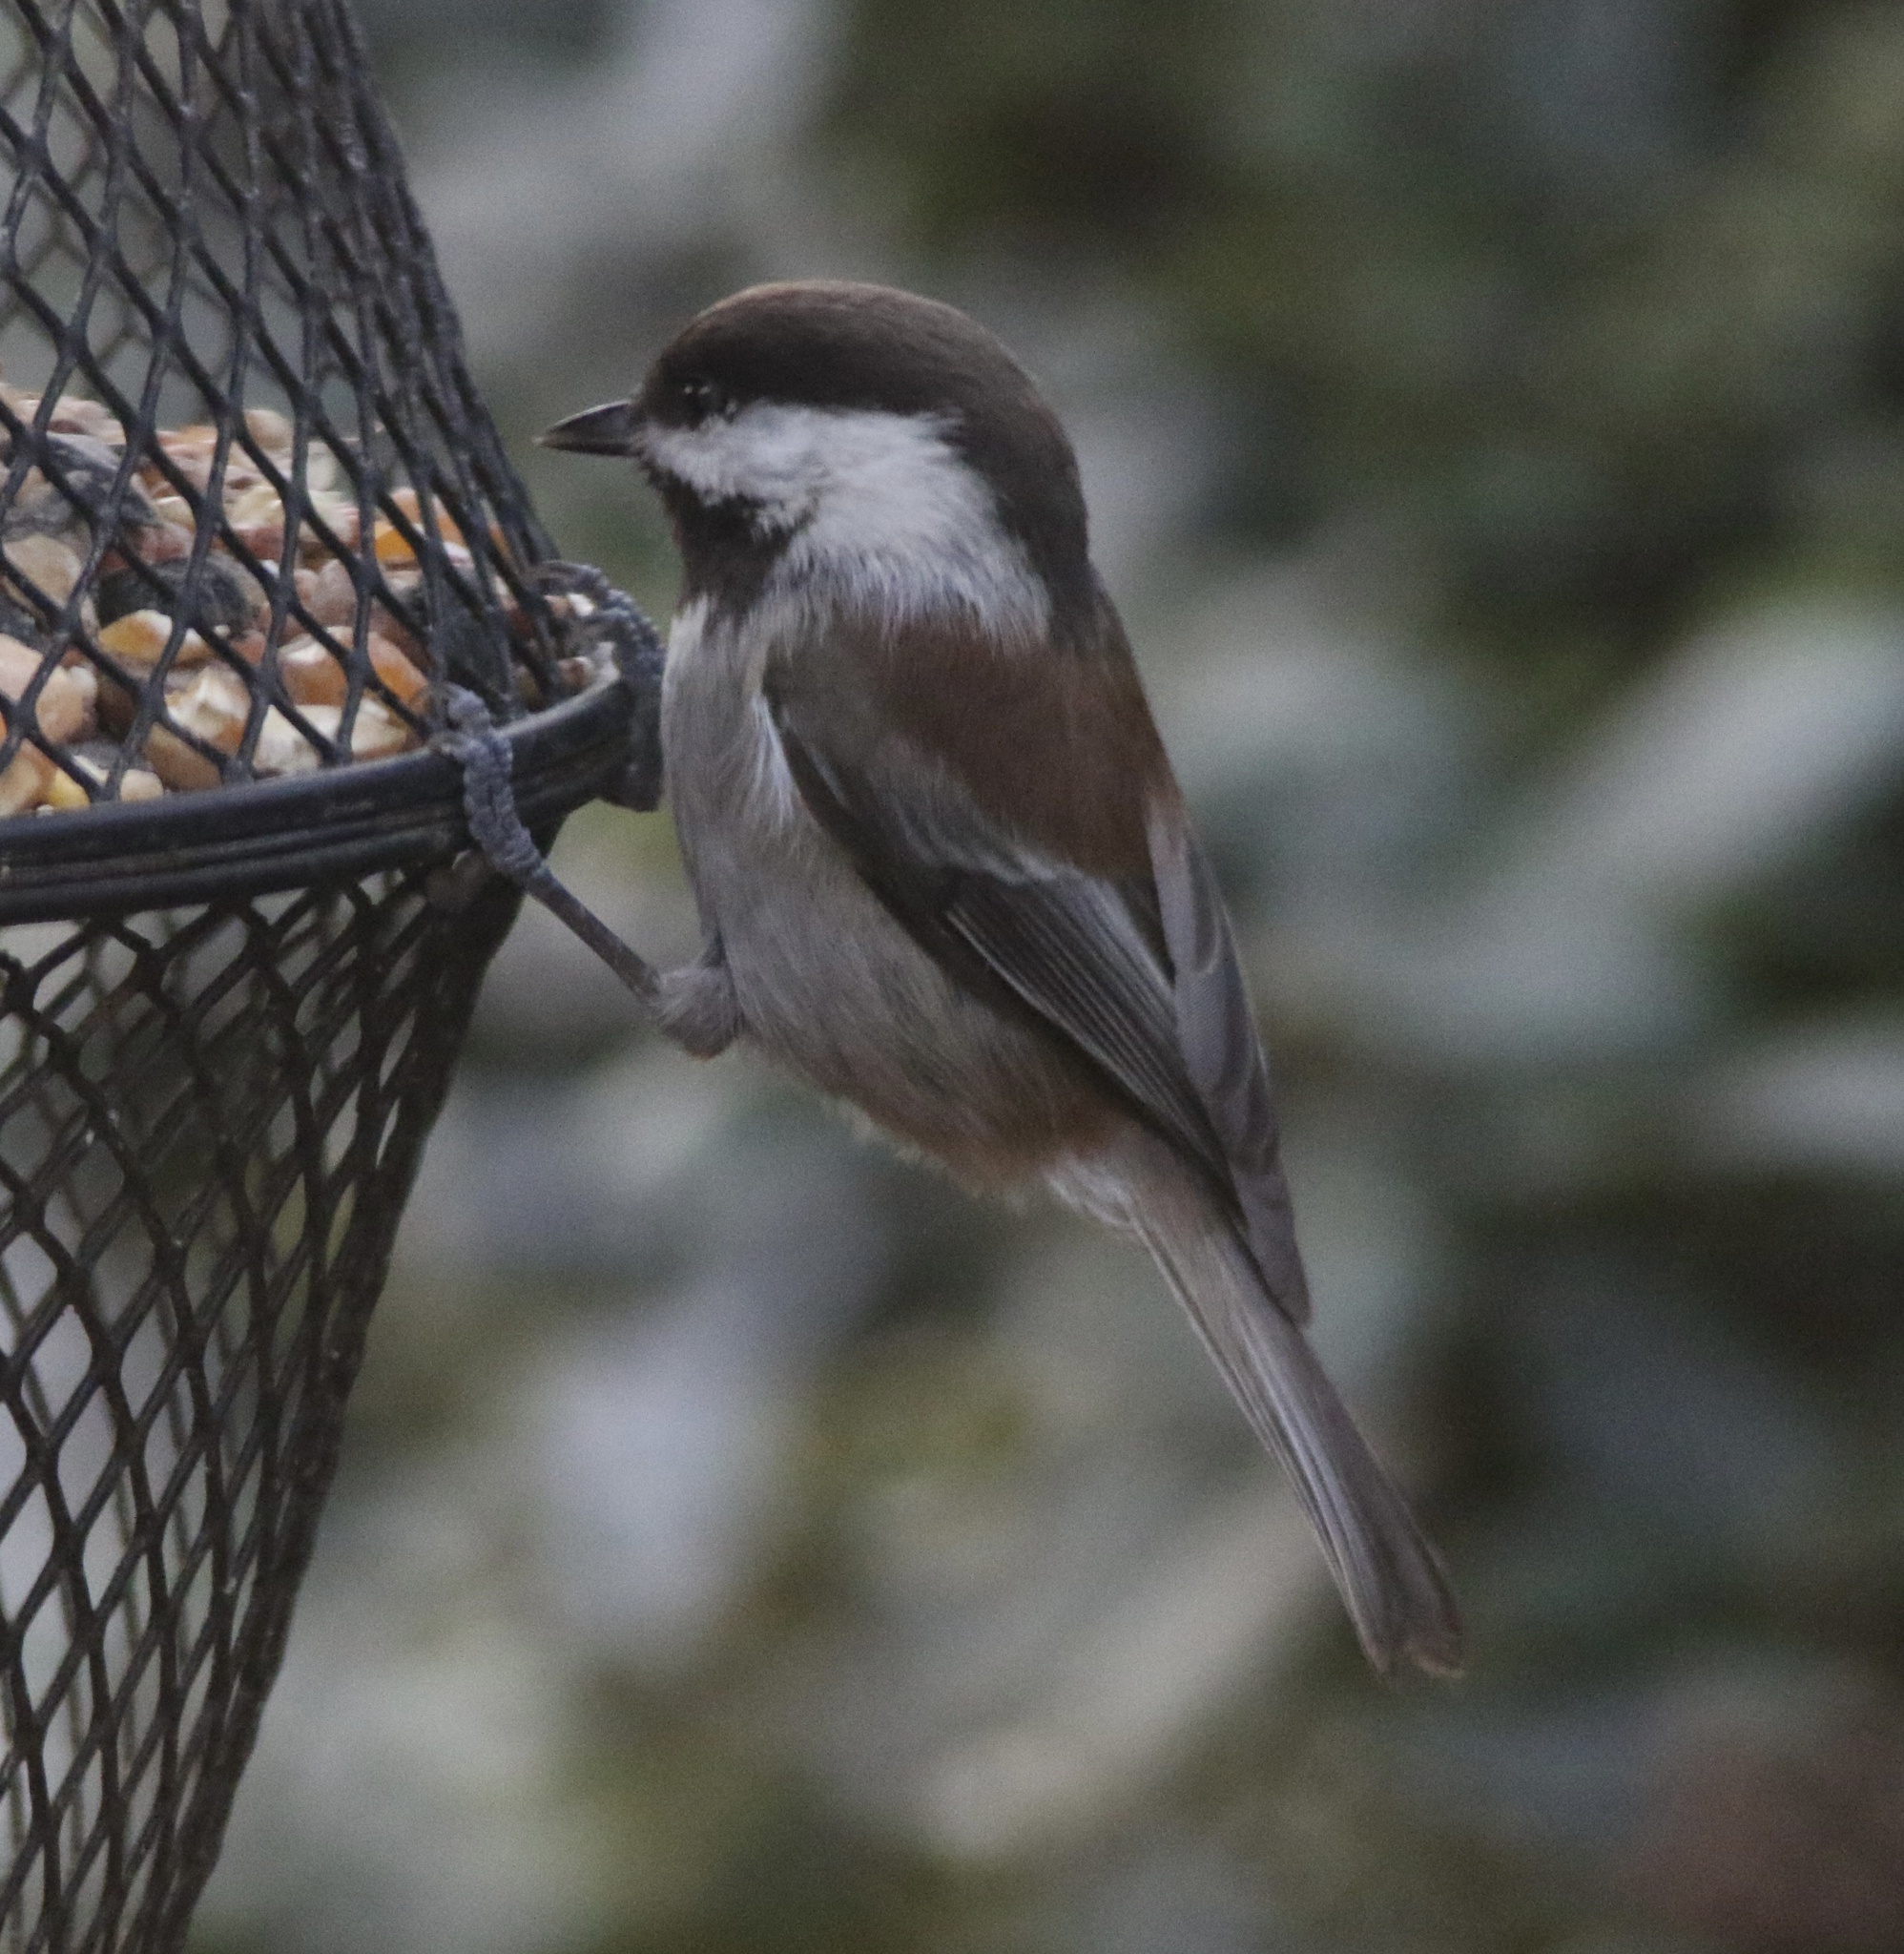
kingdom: Animalia
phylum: Chordata
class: Aves
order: Passeriformes
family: Paridae
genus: Poecile
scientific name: Poecile rufescens
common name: Chestnut-backed chickadee
